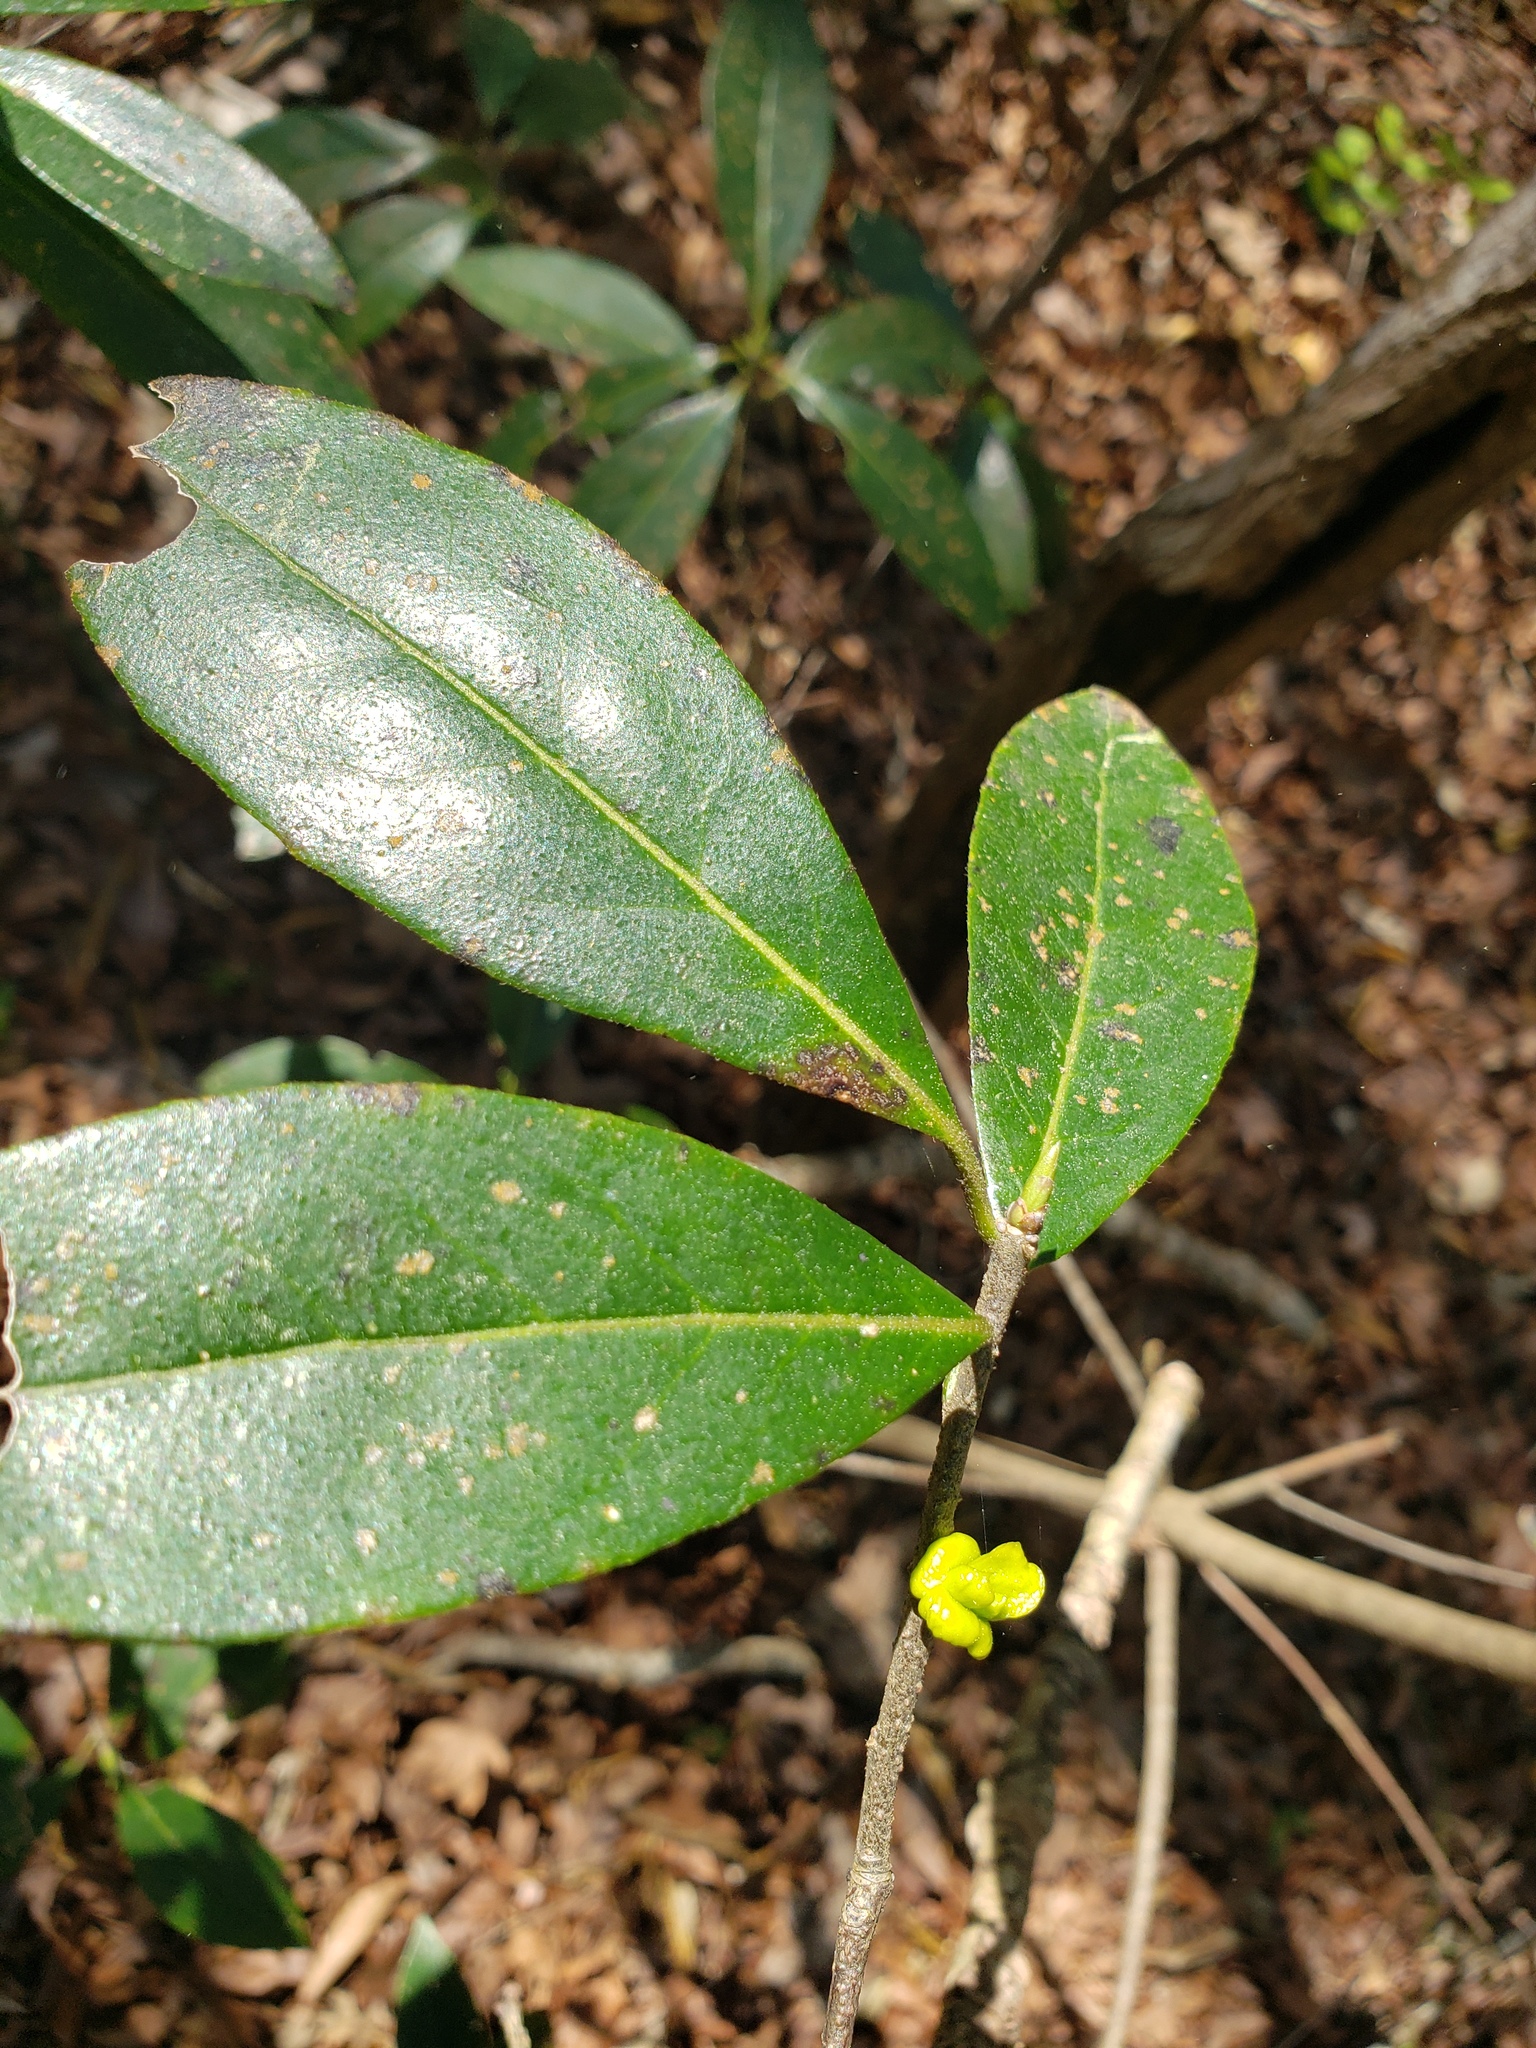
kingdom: Plantae
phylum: Tracheophyta
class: Magnoliopsida
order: Ericales
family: Symplocaceae
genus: Symplocos
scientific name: Symplocos tinctoria
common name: Horse-sugar
